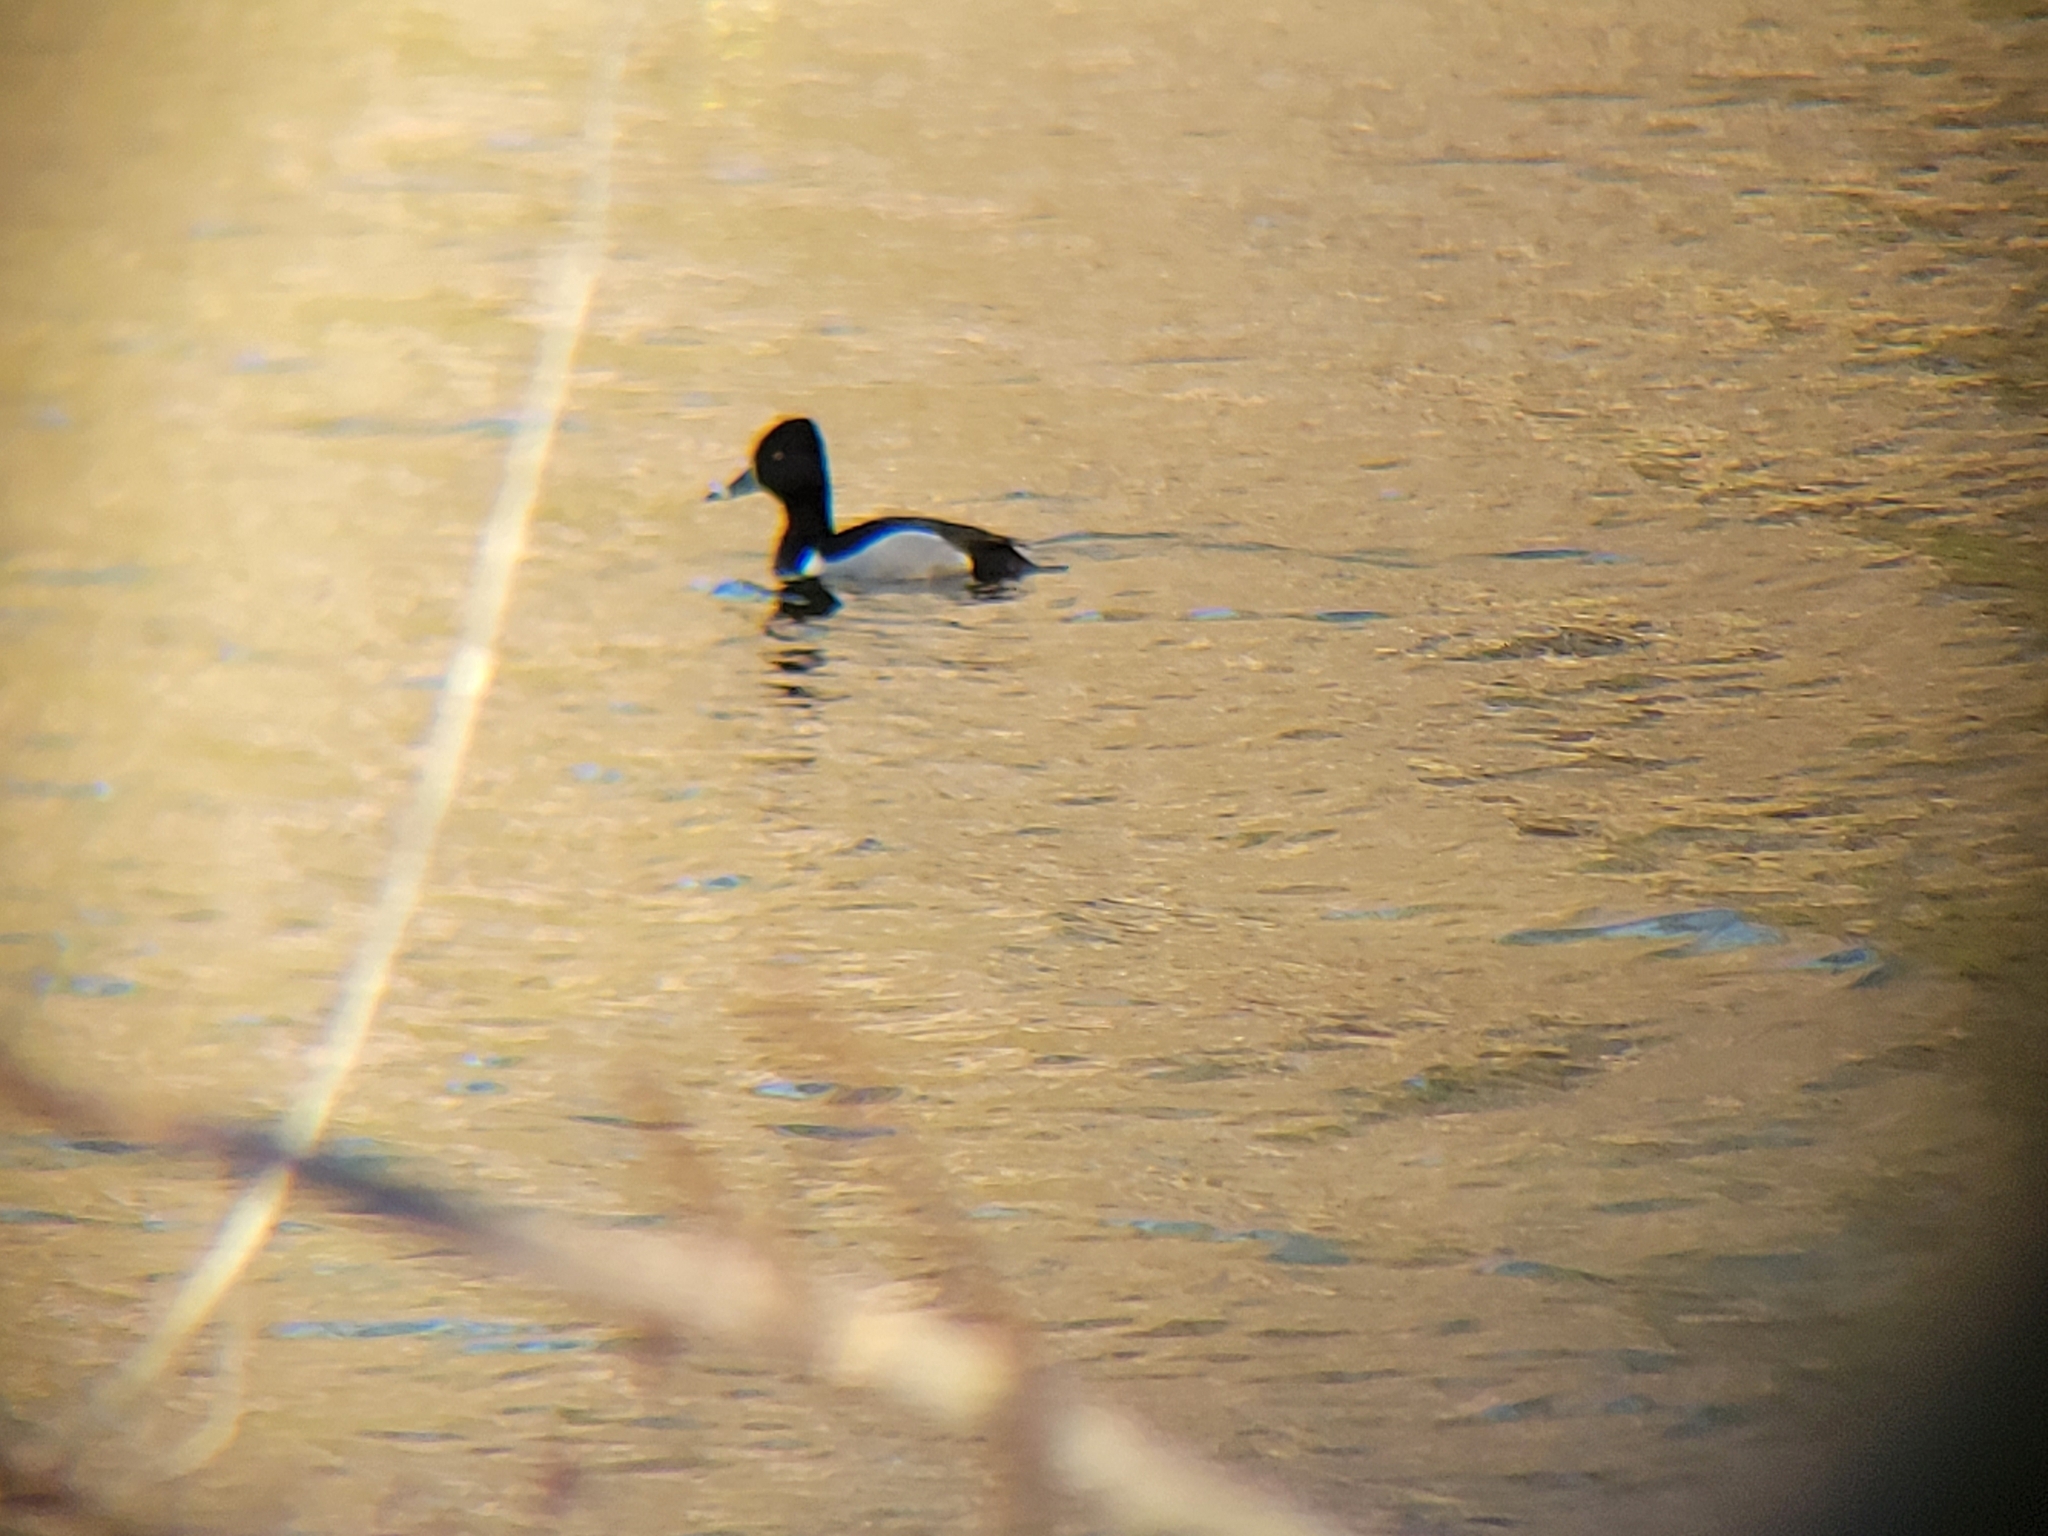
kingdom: Animalia
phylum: Chordata
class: Aves
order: Anseriformes
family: Anatidae
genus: Aythya
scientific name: Aythya collaris
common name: Ring-necked duck
